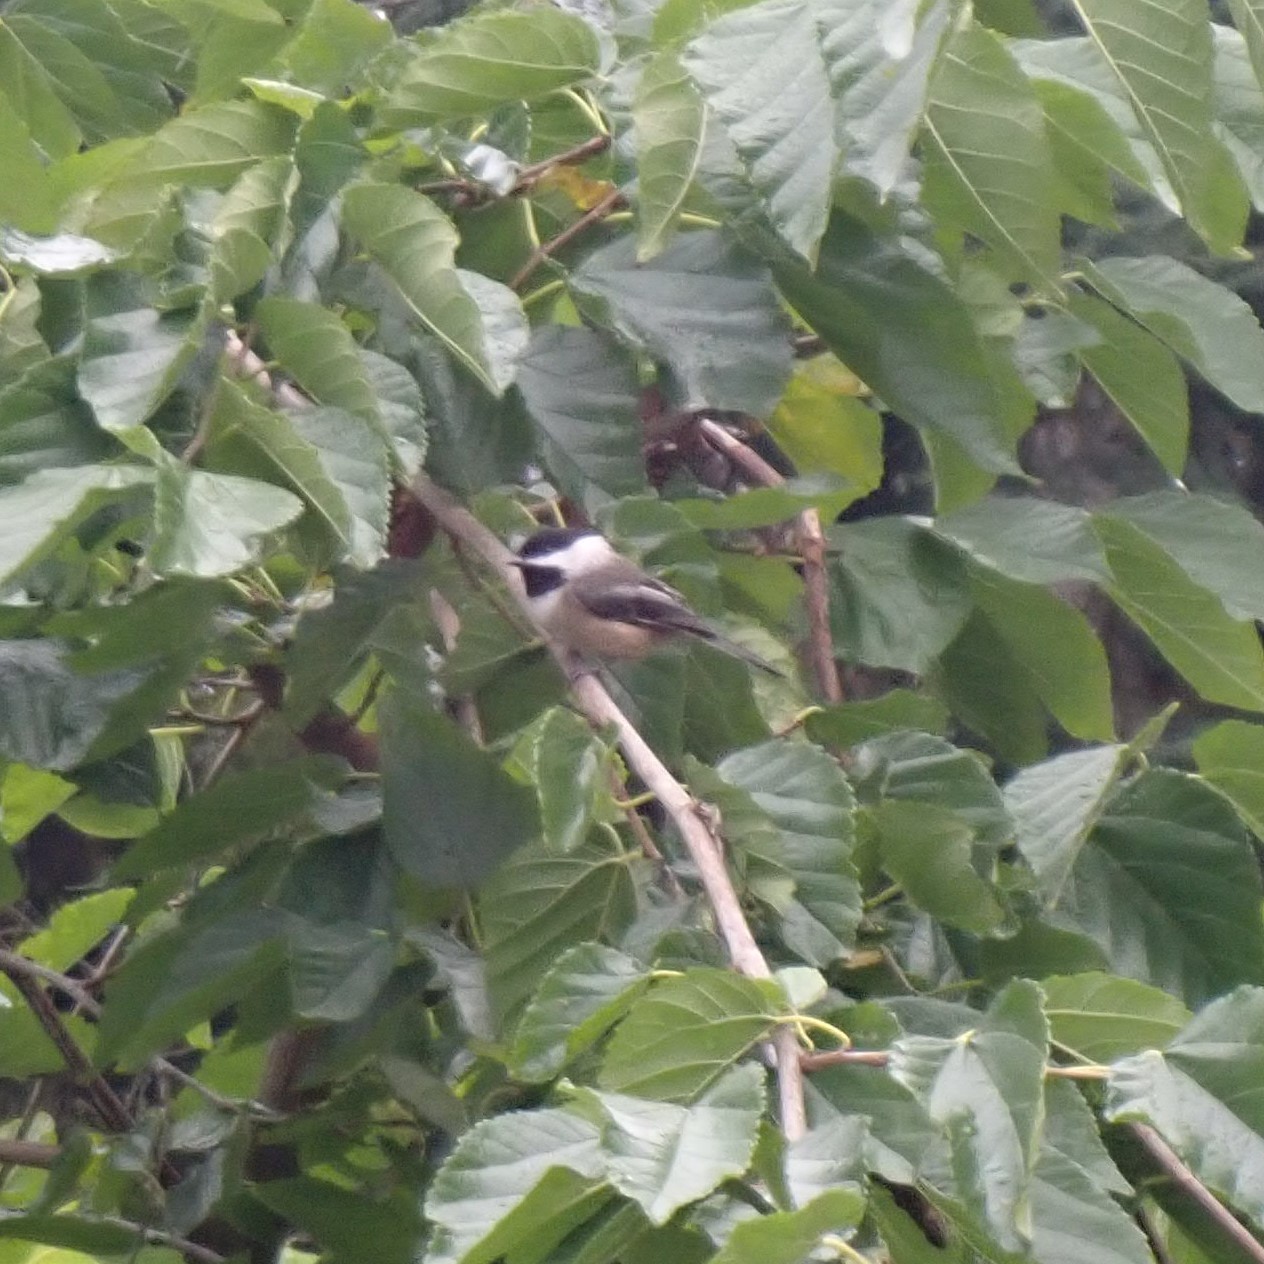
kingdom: Animalia
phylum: Chordata
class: Aves
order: Passeriformes
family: Paridae
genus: Poecile
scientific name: Poecile atricapillus
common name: Black-capped chickadee
